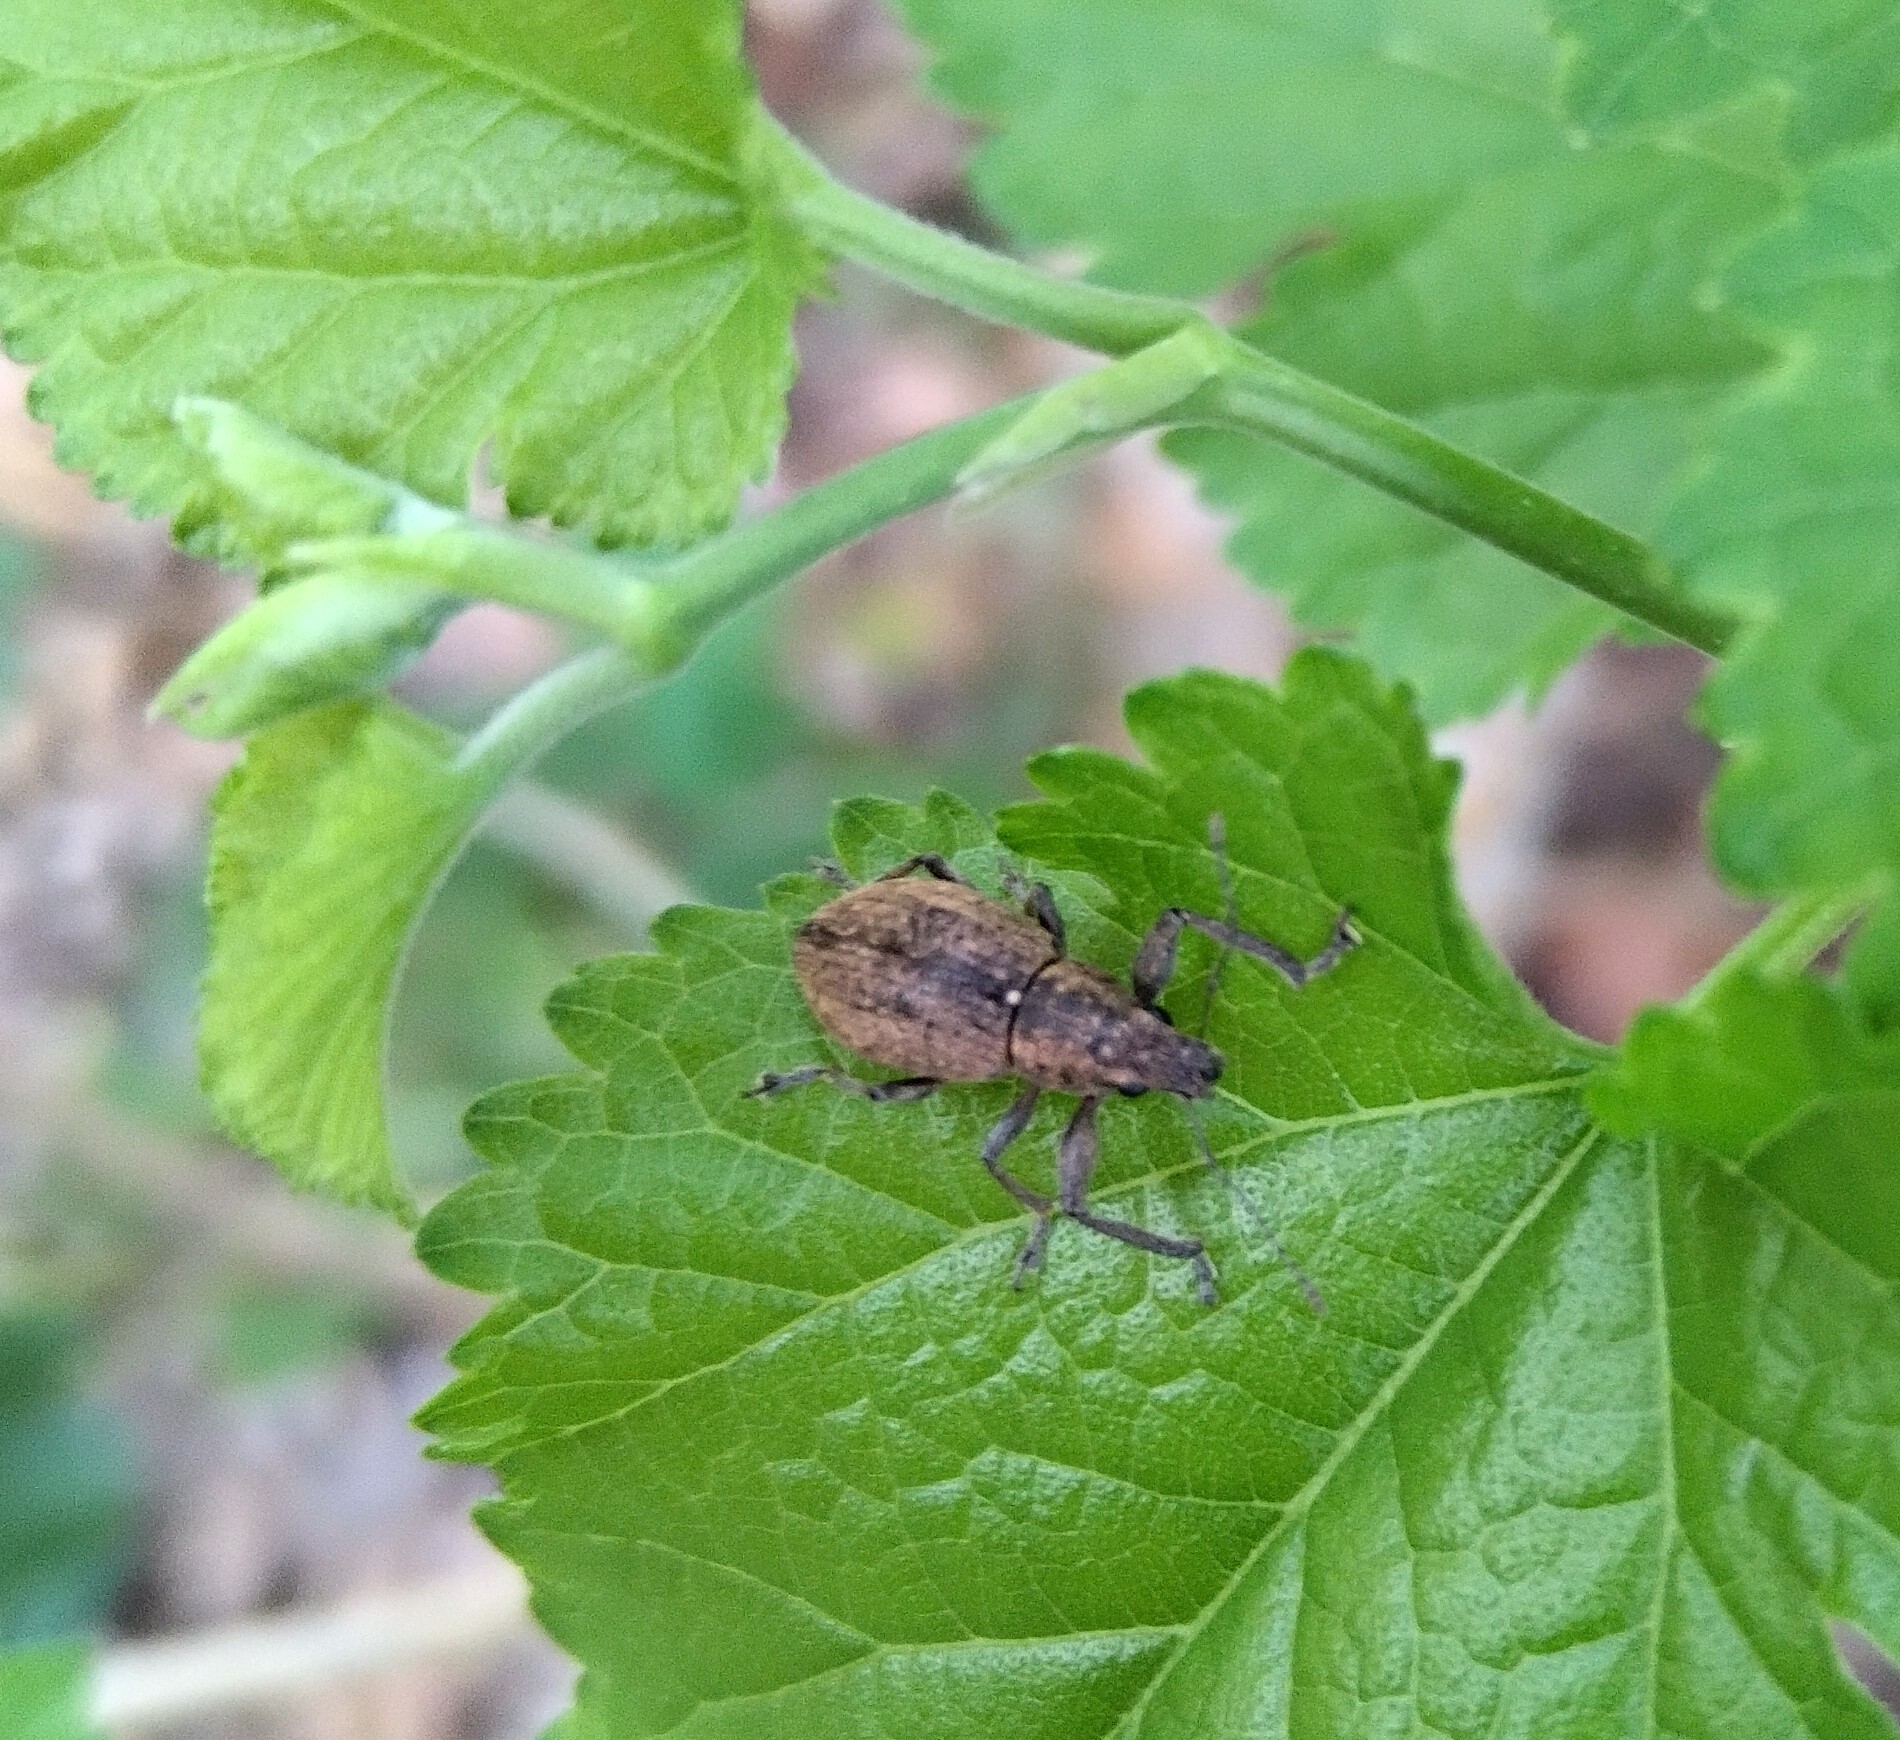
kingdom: Animalia
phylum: Arthropoda
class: Insecta
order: Coleoptera
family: Curculionidae
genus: Naupactus
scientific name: Naupactus versatilis
